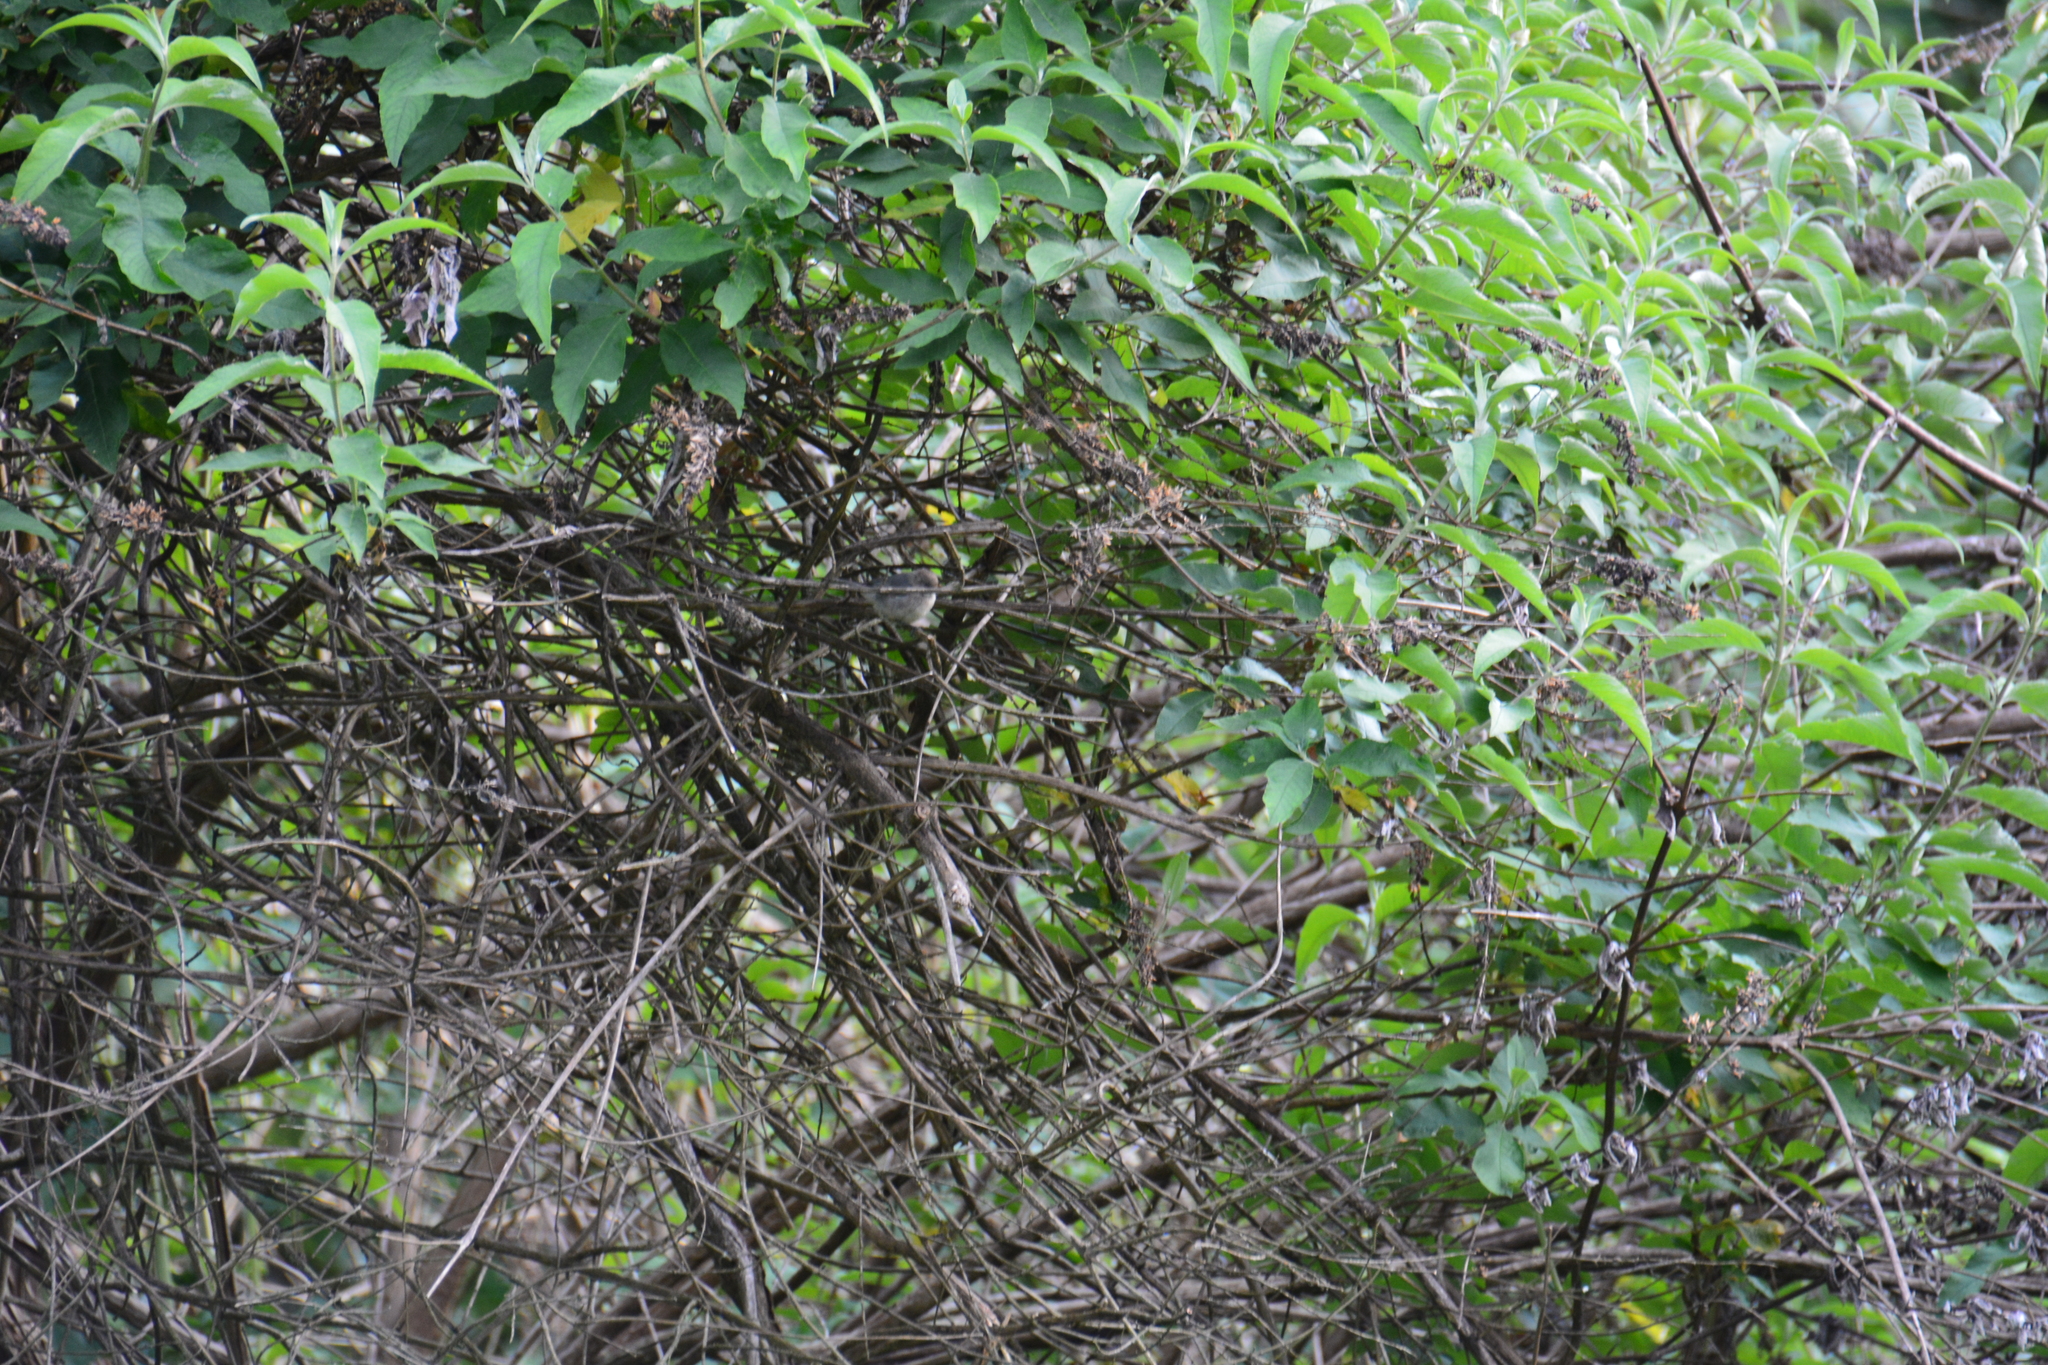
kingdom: Plantae
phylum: Tracheophyta
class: Magnoliopsida
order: Lamiales
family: Scrophulariaceae
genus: Buddleja
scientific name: Buddleja davidii
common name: Butterfly-bush
